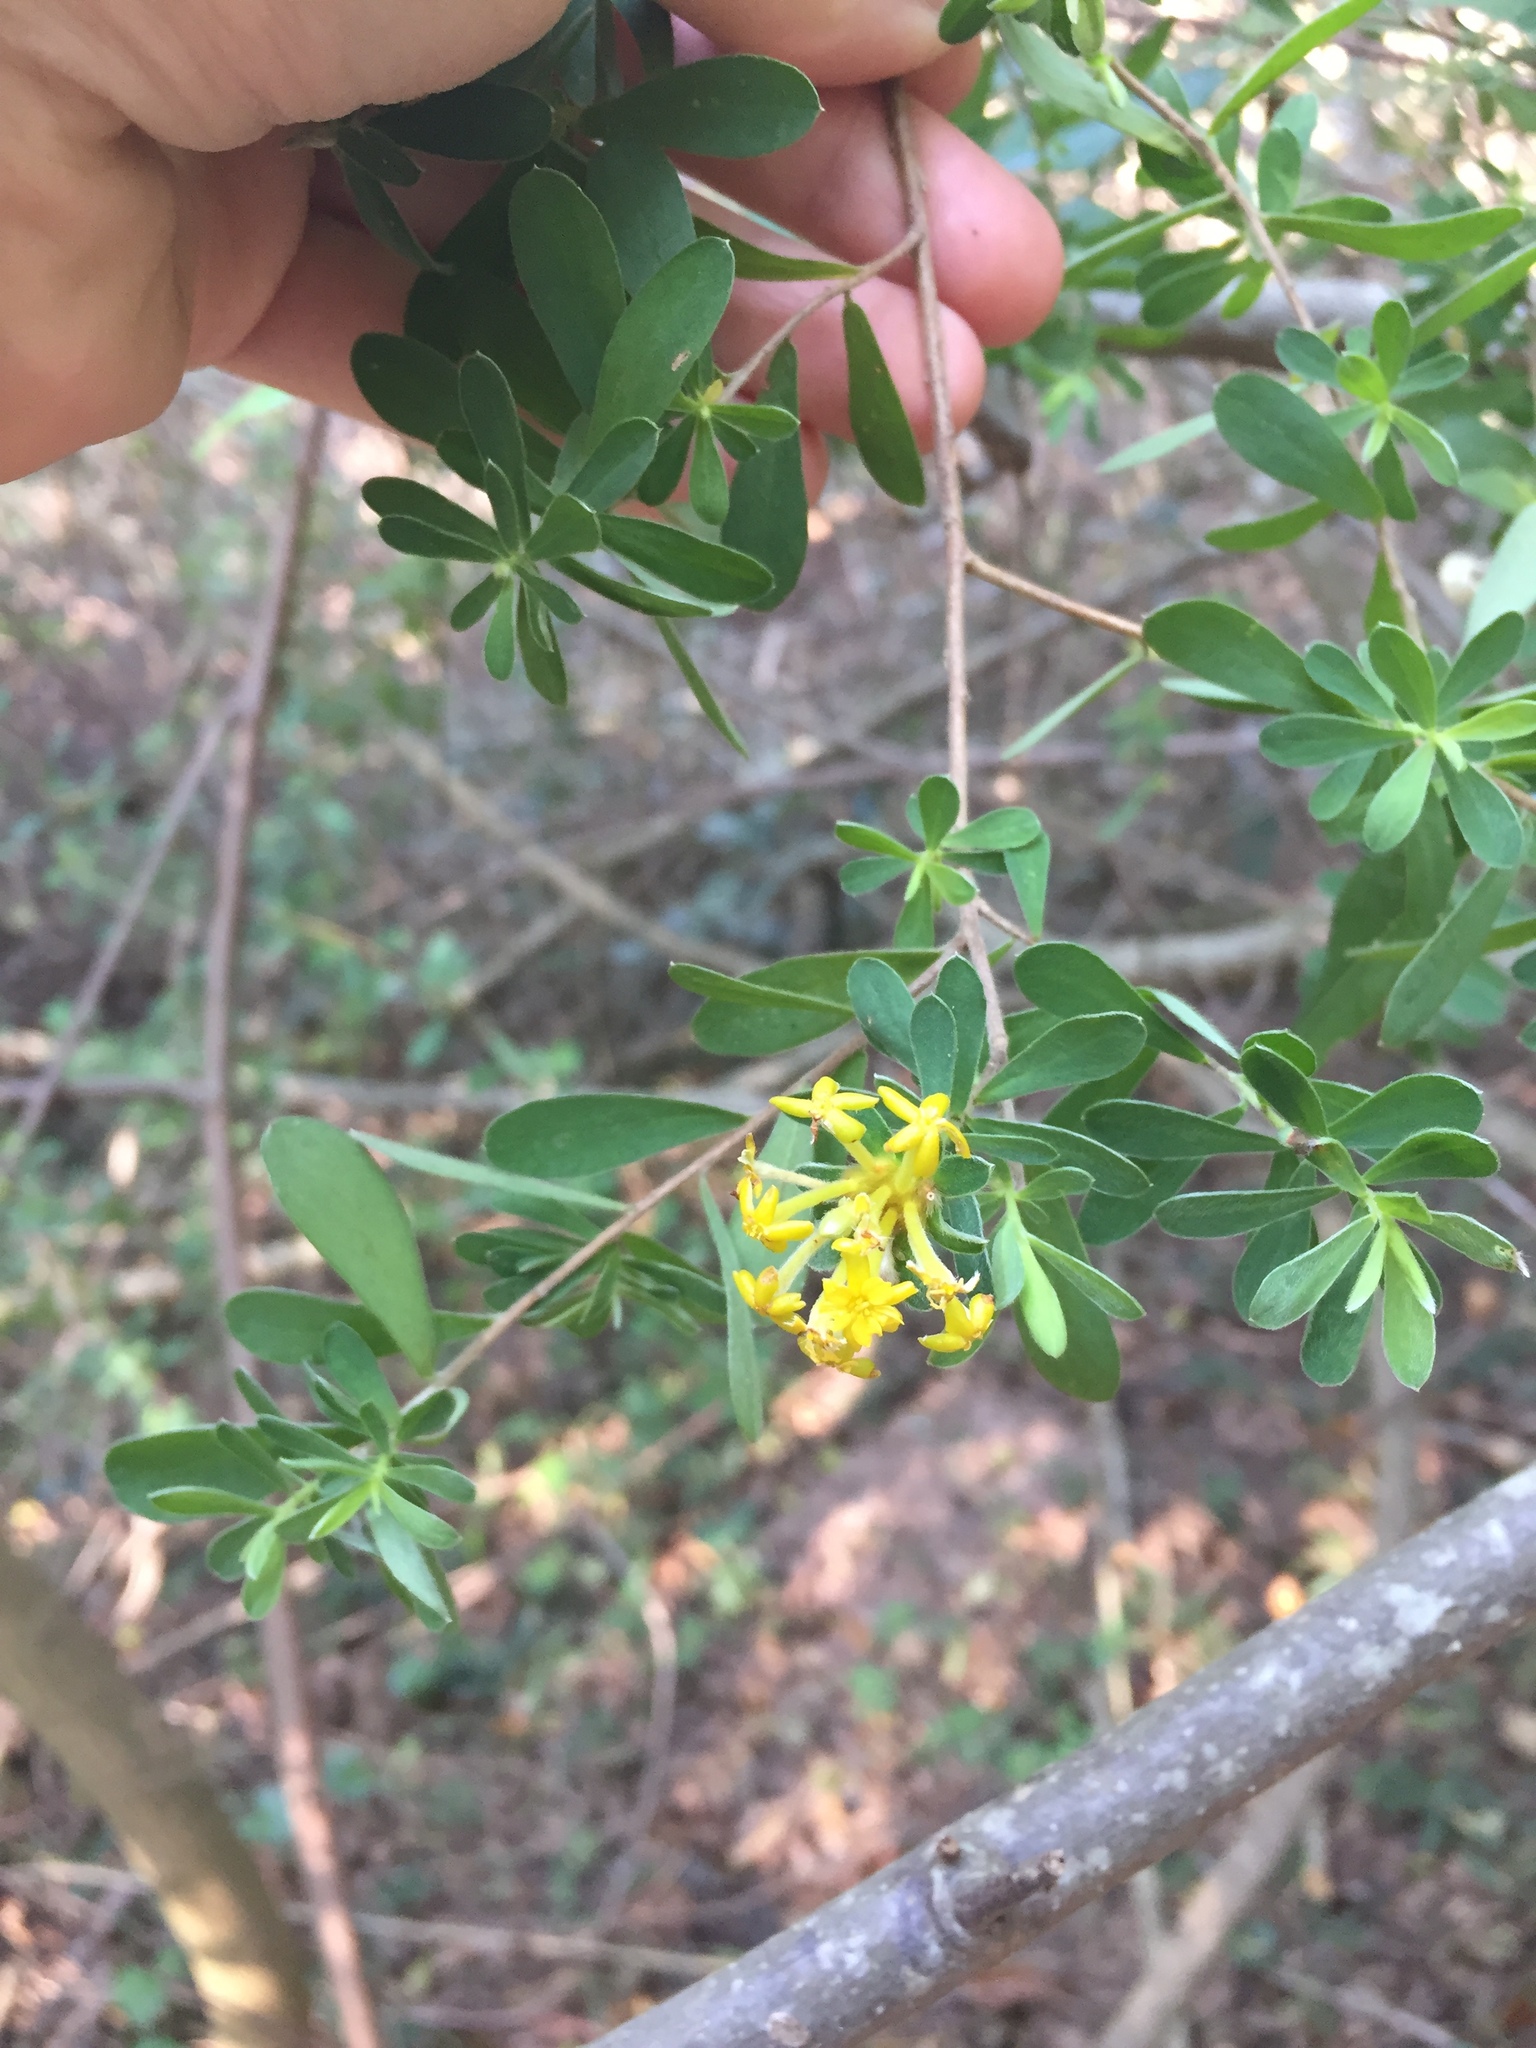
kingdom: Plantae
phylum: Tracheophyta
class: Magnoliopsida
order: Malvales
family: Thymelaeaceae
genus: Gnidia
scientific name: Gnidia macropetala
